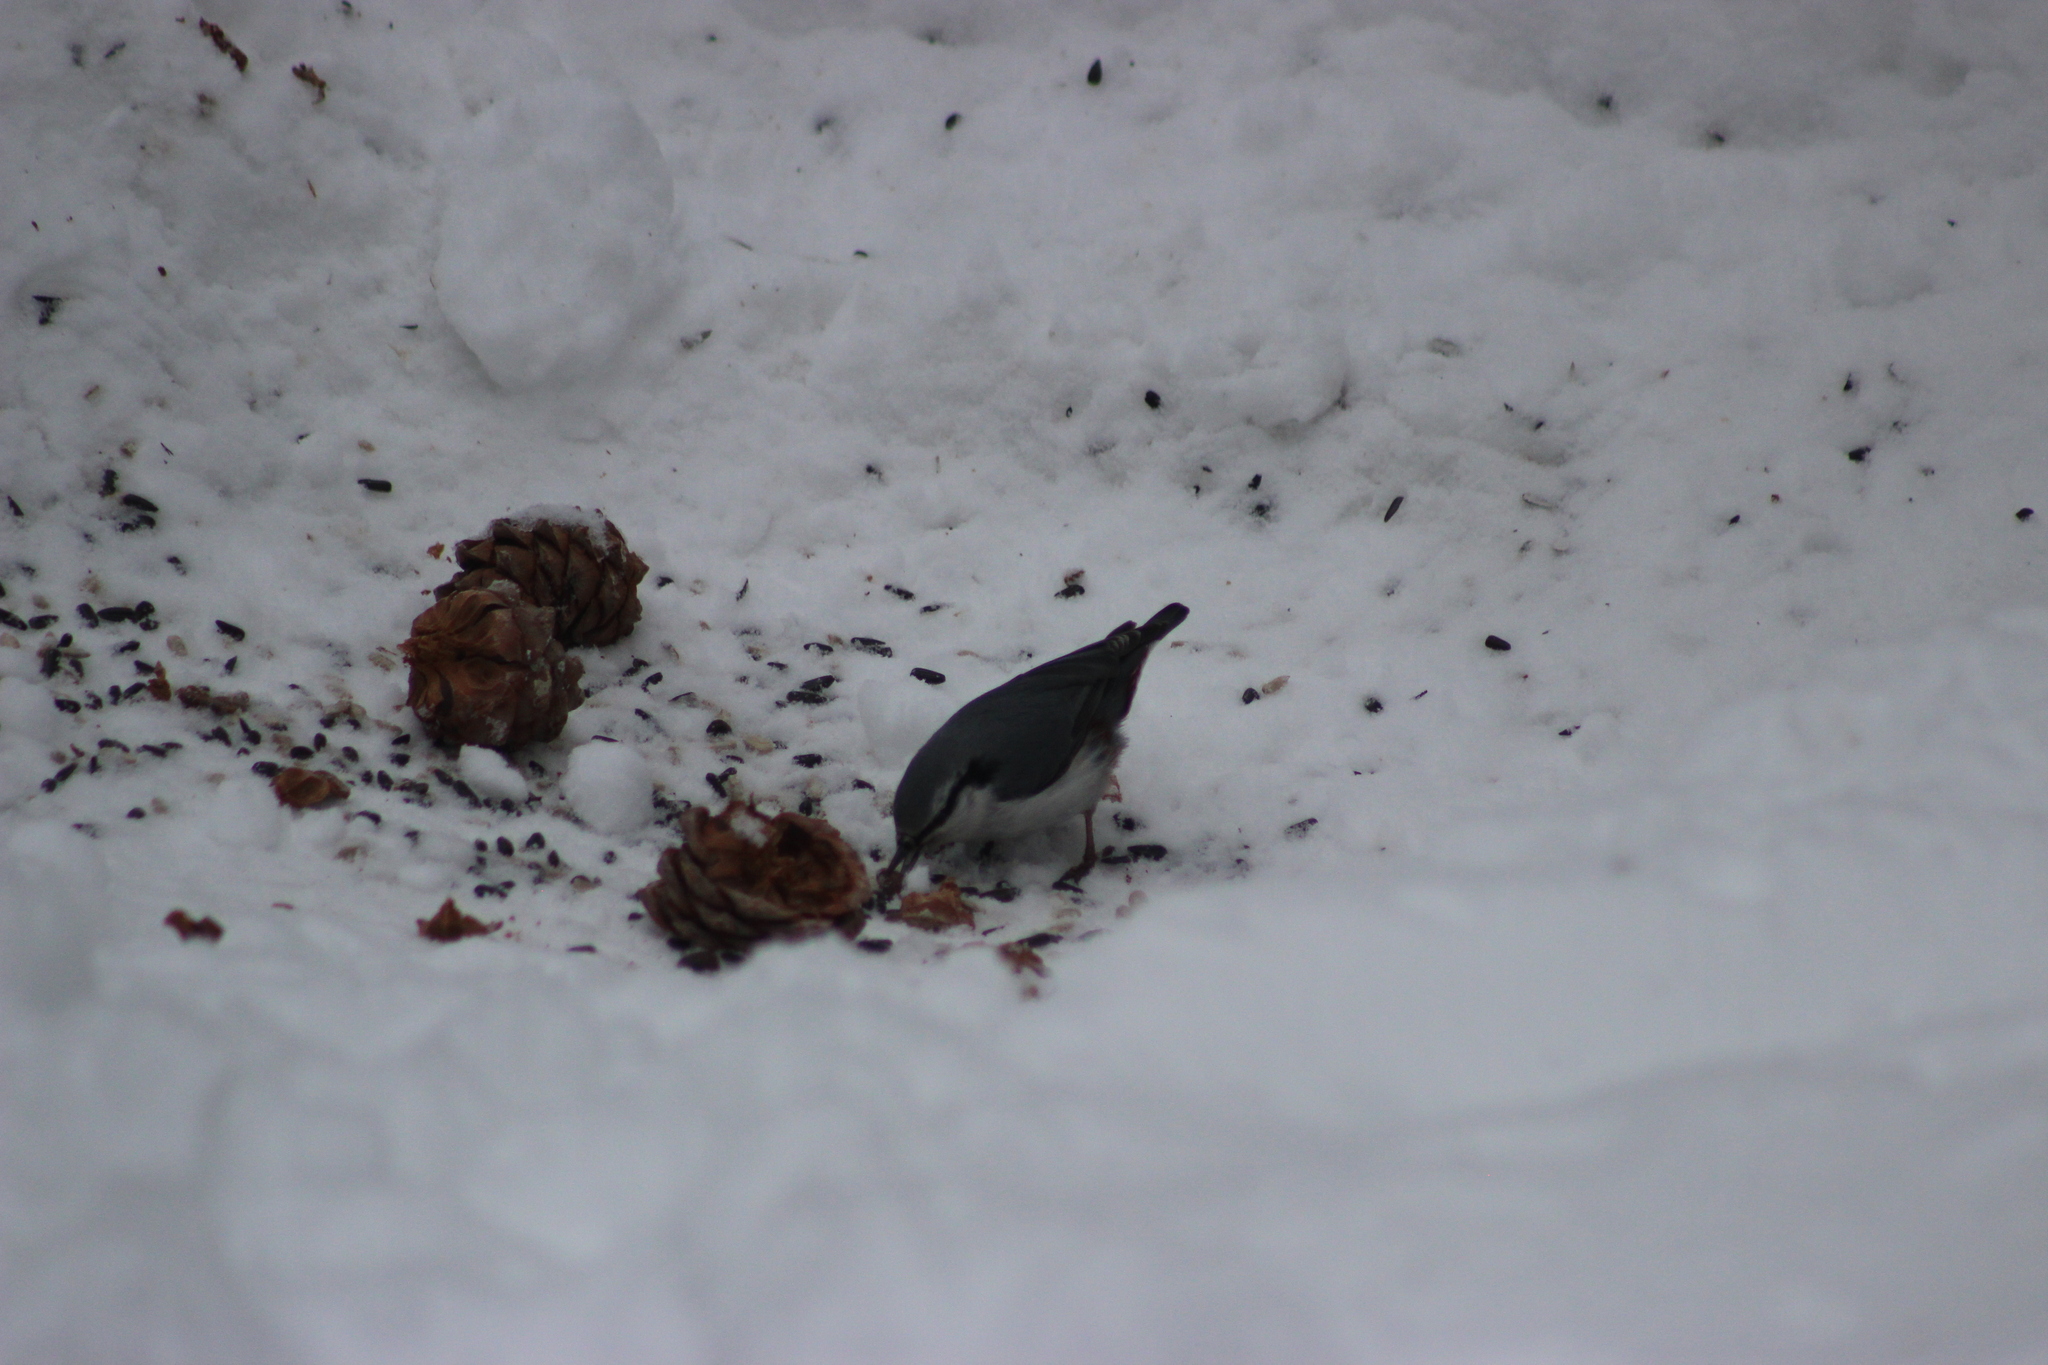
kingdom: Animalia
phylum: Chordata
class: Aves
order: Passeriformes
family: Sittidae
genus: Sitta
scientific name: Sitta europaea
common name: Eurasian nuthatch
